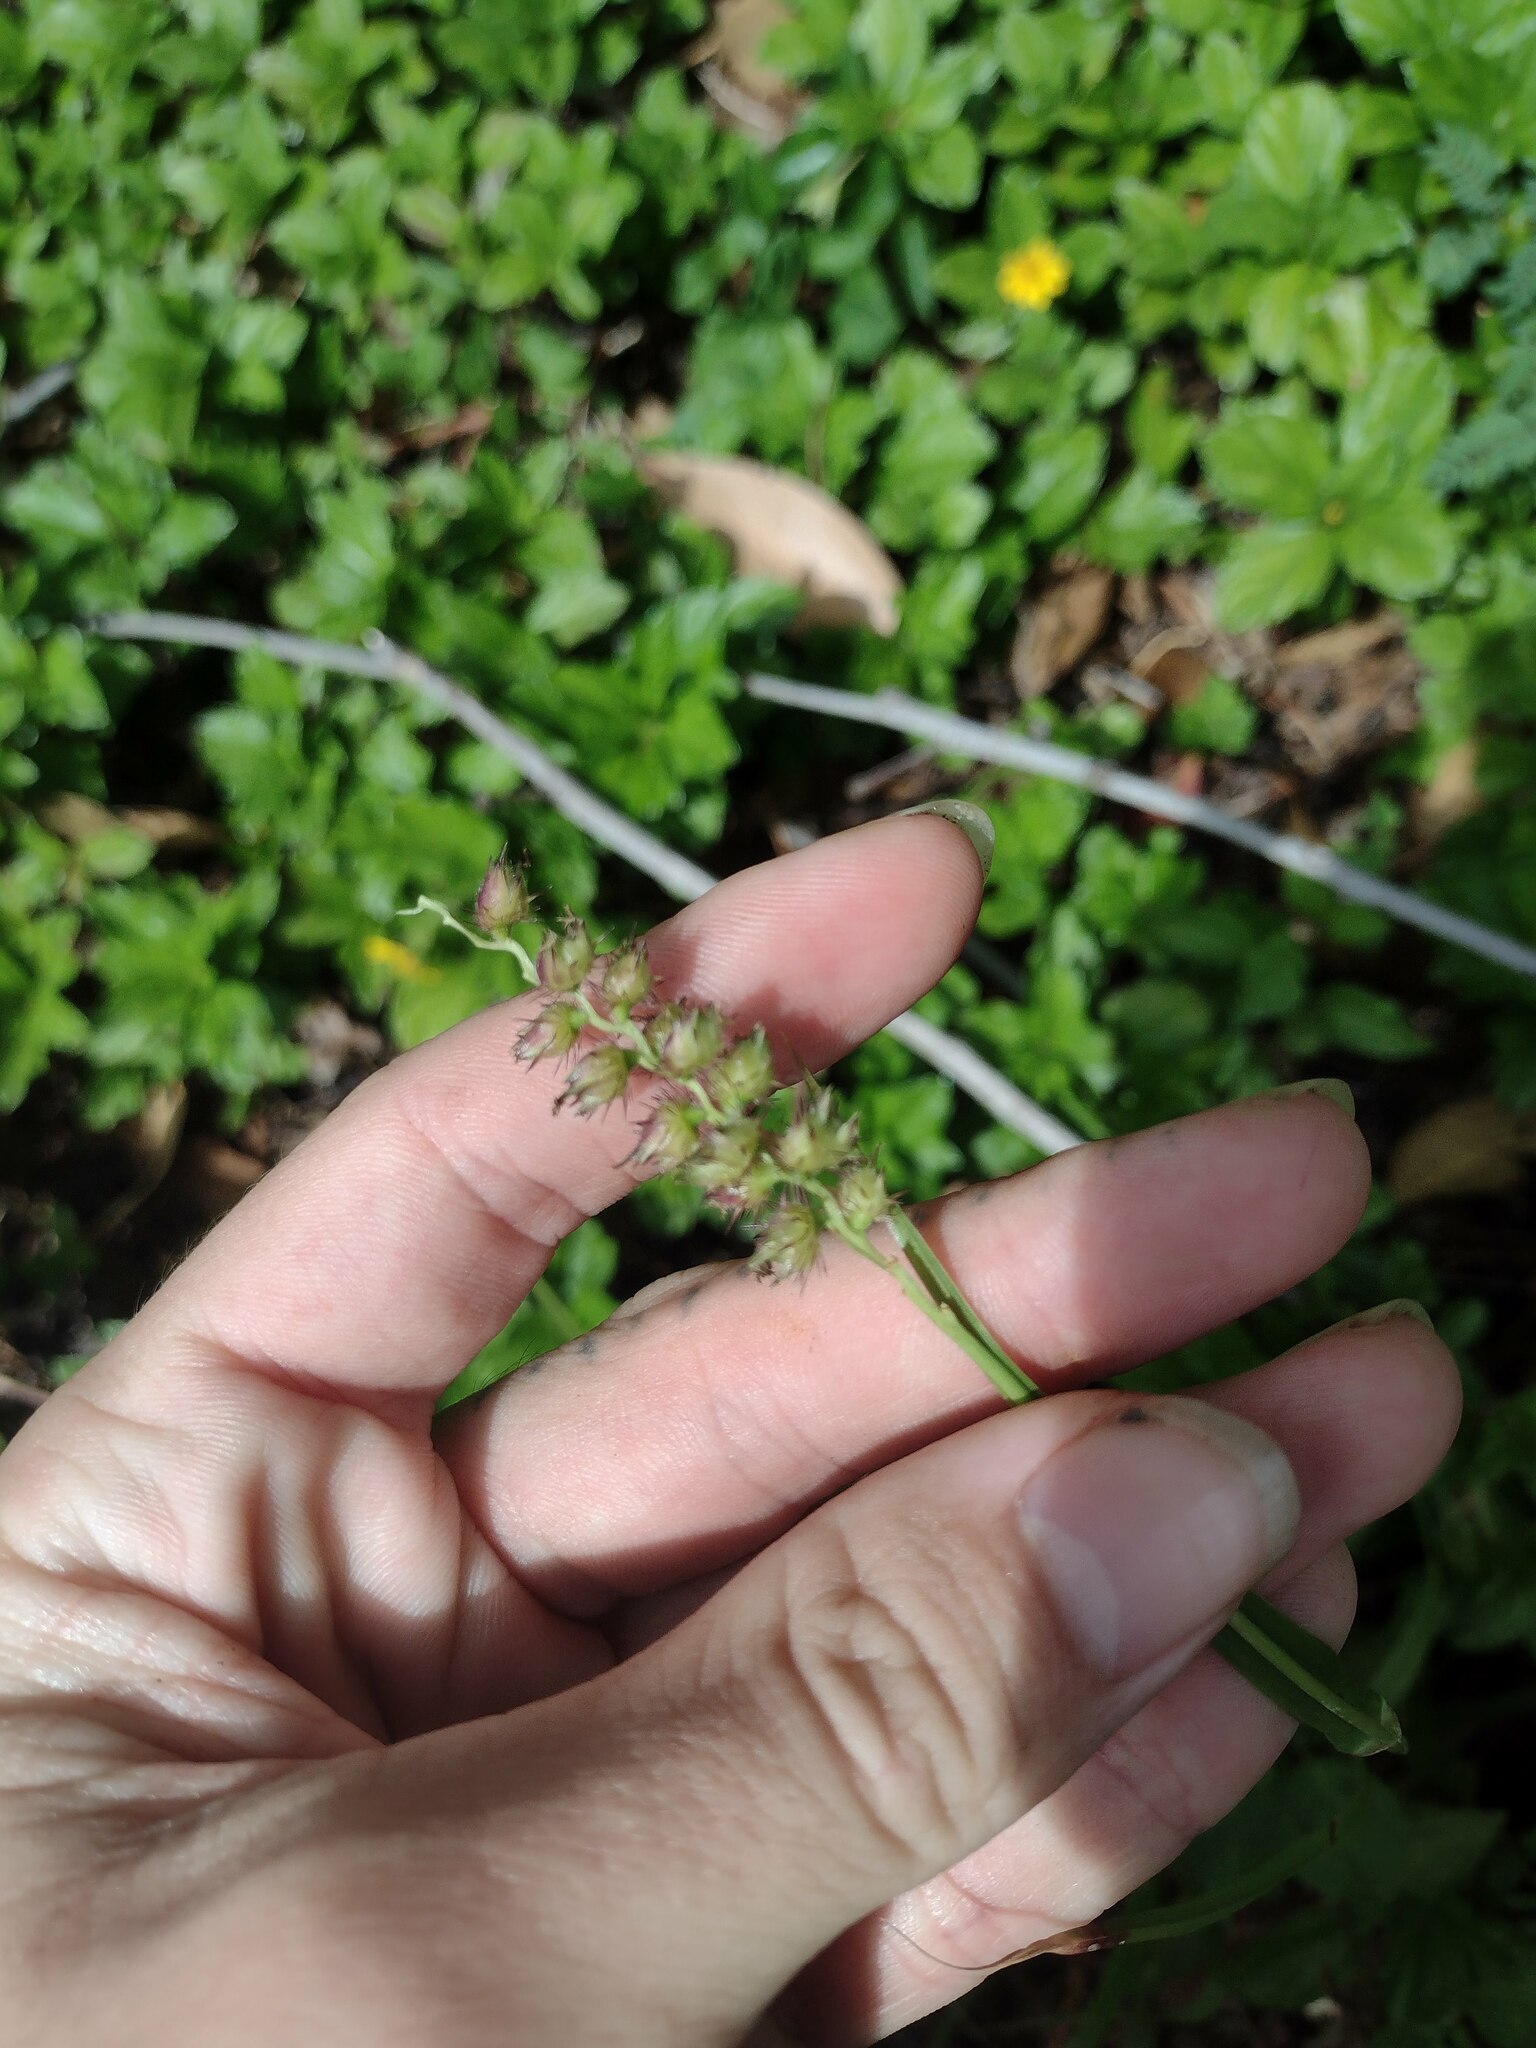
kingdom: Plantae
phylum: Tracheophyta
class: Liliopsida
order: Poales
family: Poaceae
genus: Cenchrus
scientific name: Cenchrus echinatus
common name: Southern sandbur
